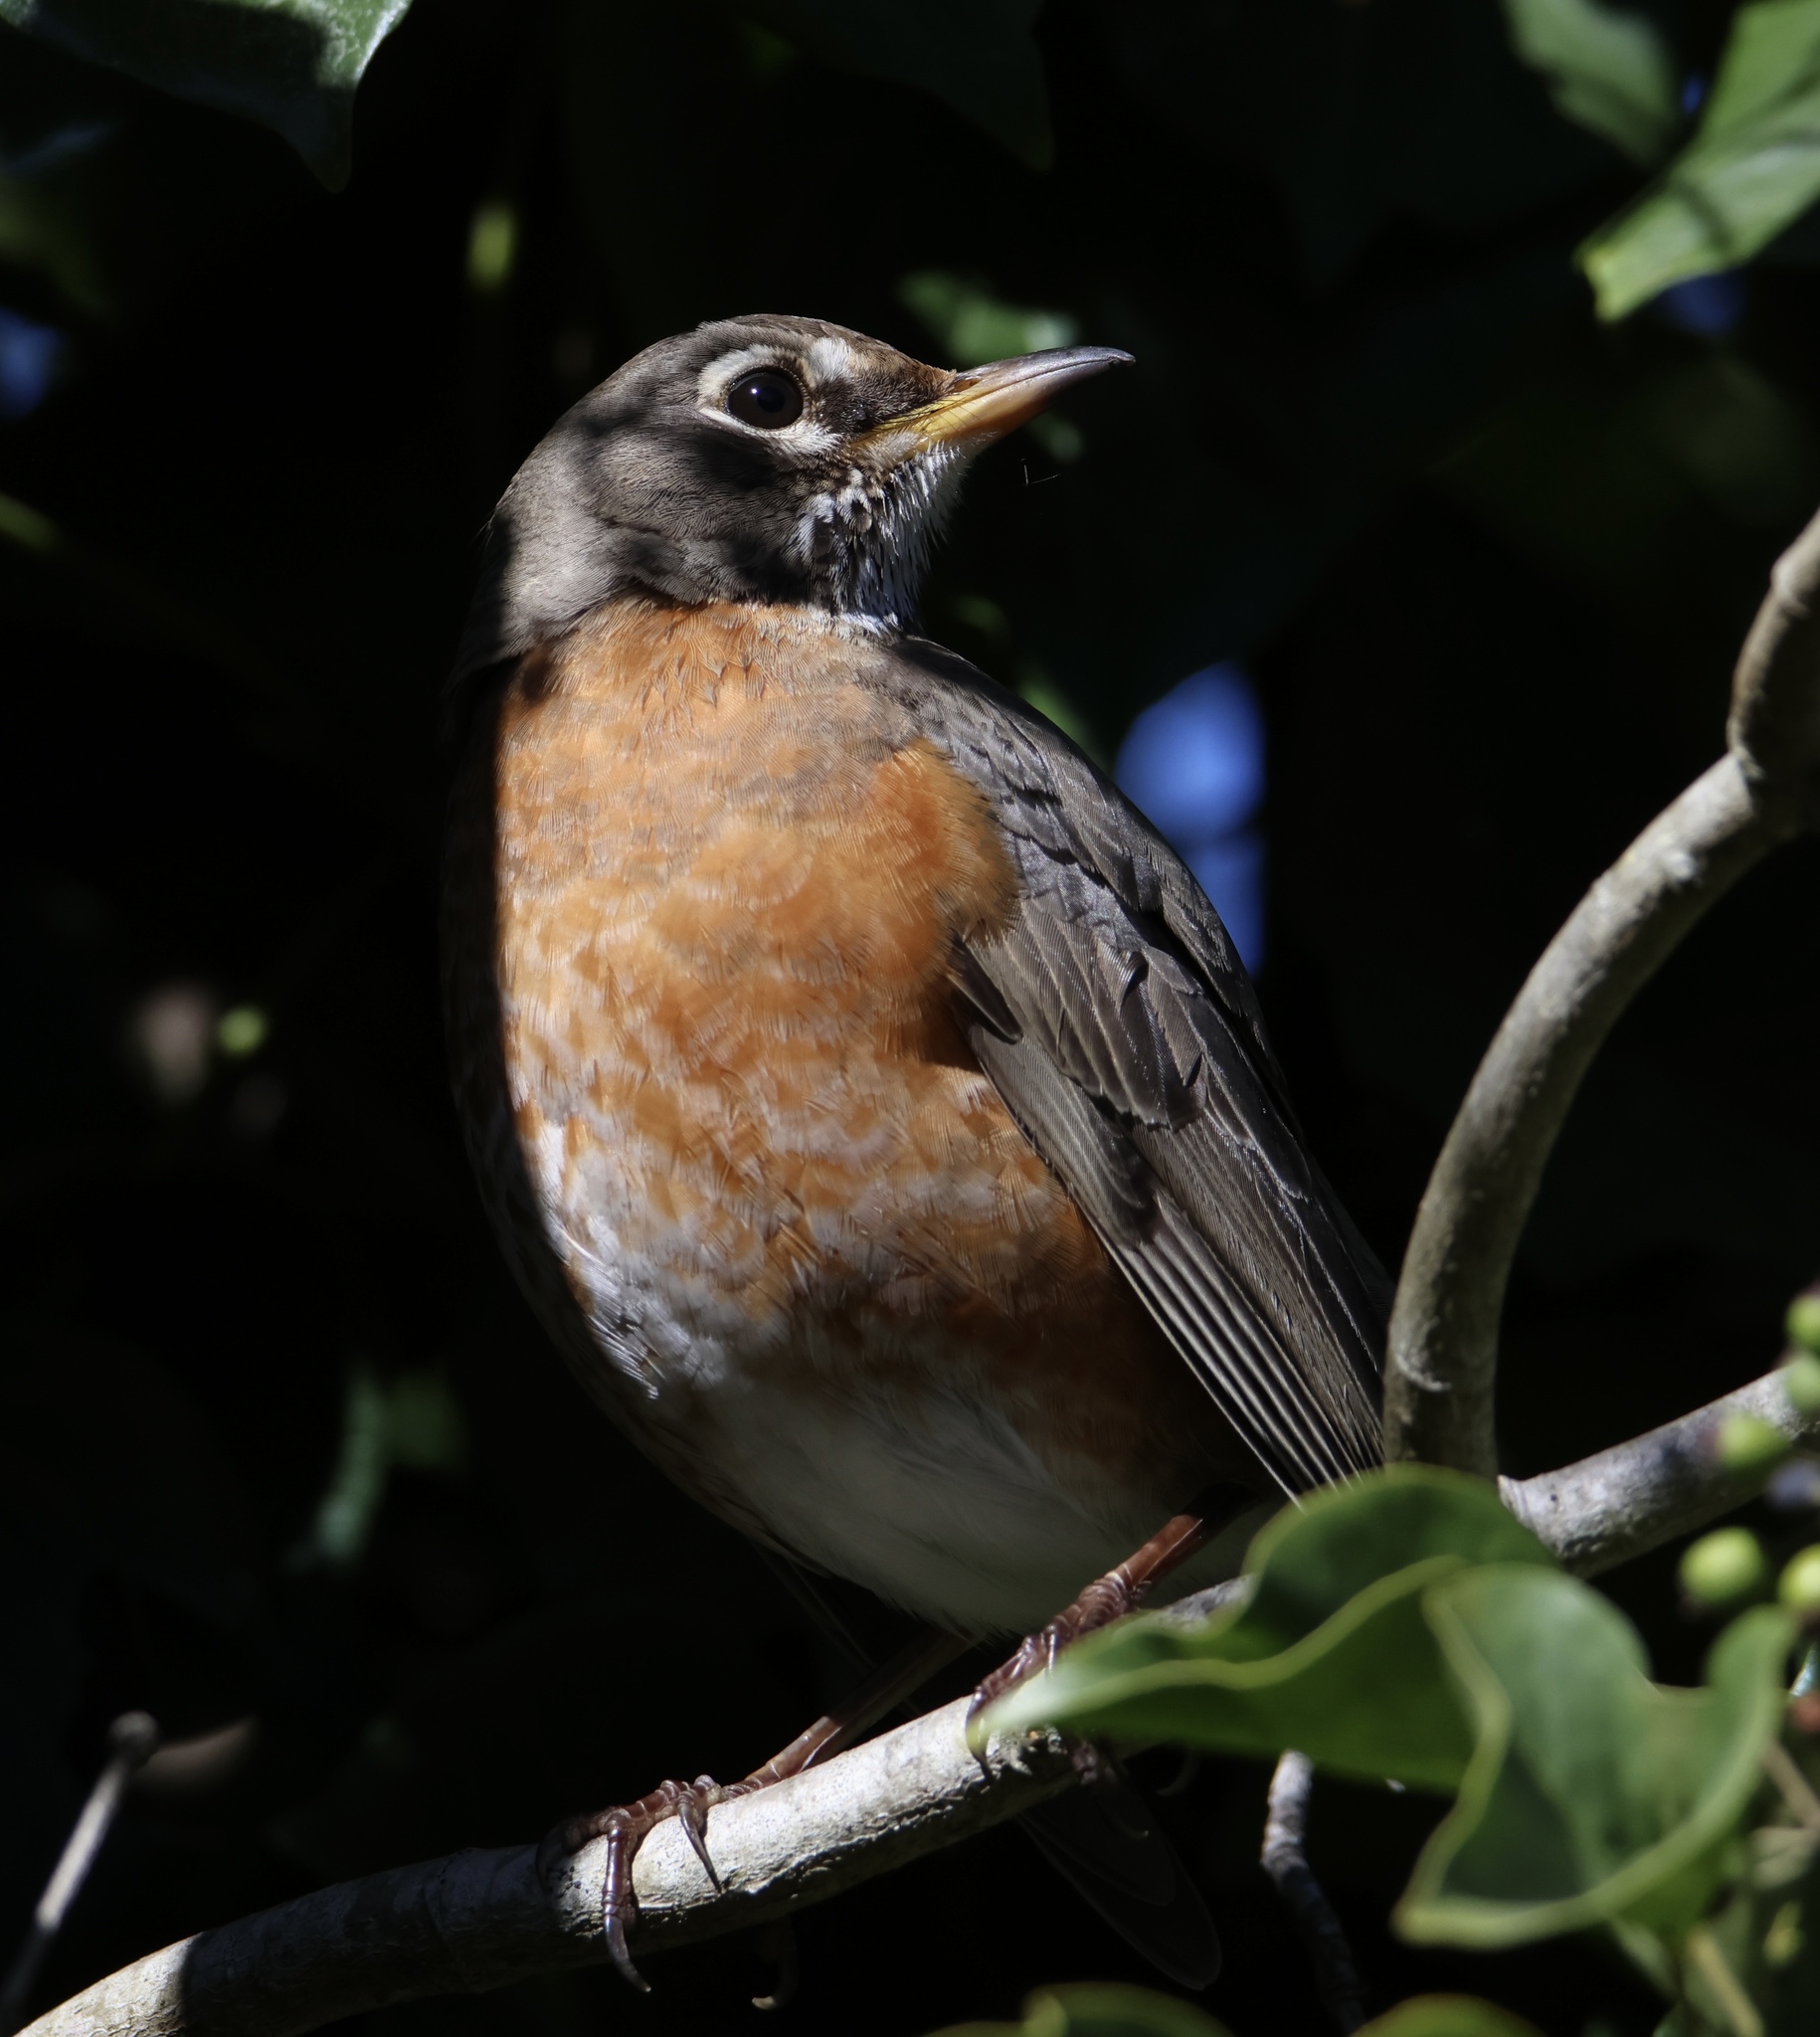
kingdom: Animalia
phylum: Chordata
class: Aves
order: Passeriformes
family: Turdidae
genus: Turdus
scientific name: Turdus migratorius
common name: American robin
